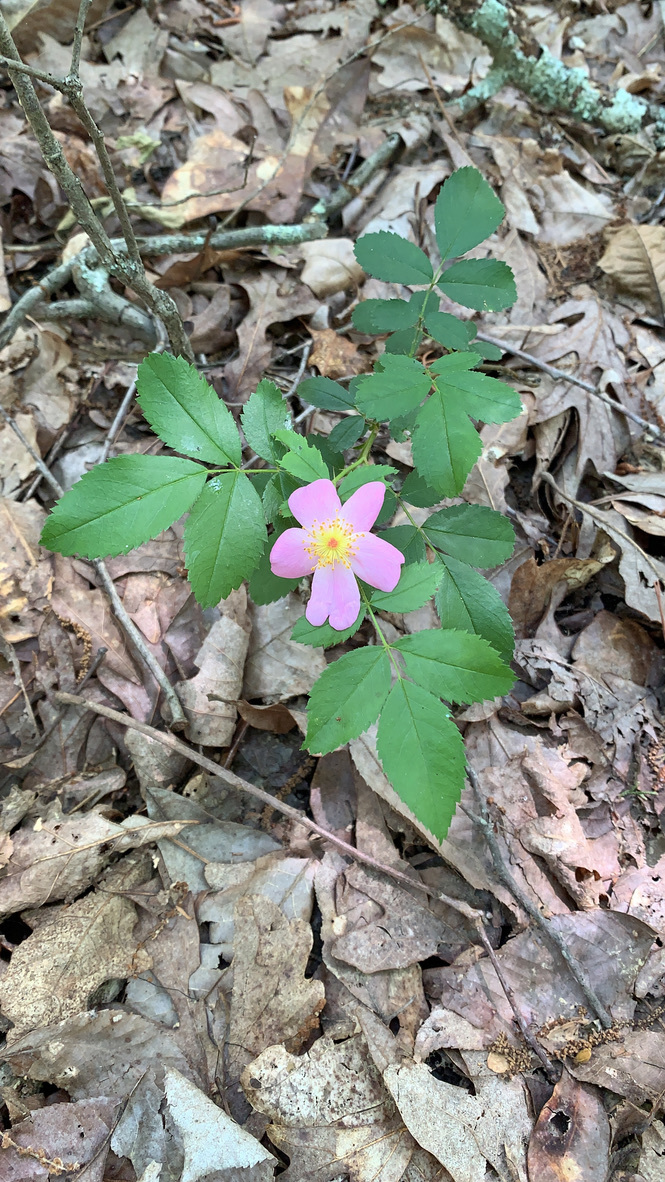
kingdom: Plantae
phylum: Tracheophyta
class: Magnoliopsida
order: Rosales
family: Rosaceae
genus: Rosa
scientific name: Rosa carolina
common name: Pasture rose
